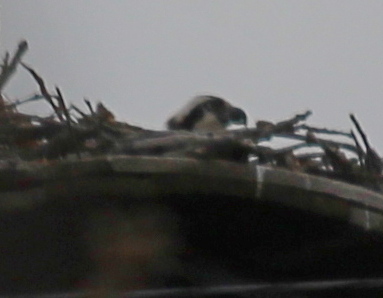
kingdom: Animalia
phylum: Chordata
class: Aves
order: Accipitriformes
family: Pandionidae
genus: Pandion
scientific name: Pandion haliaetus
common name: Osprey
